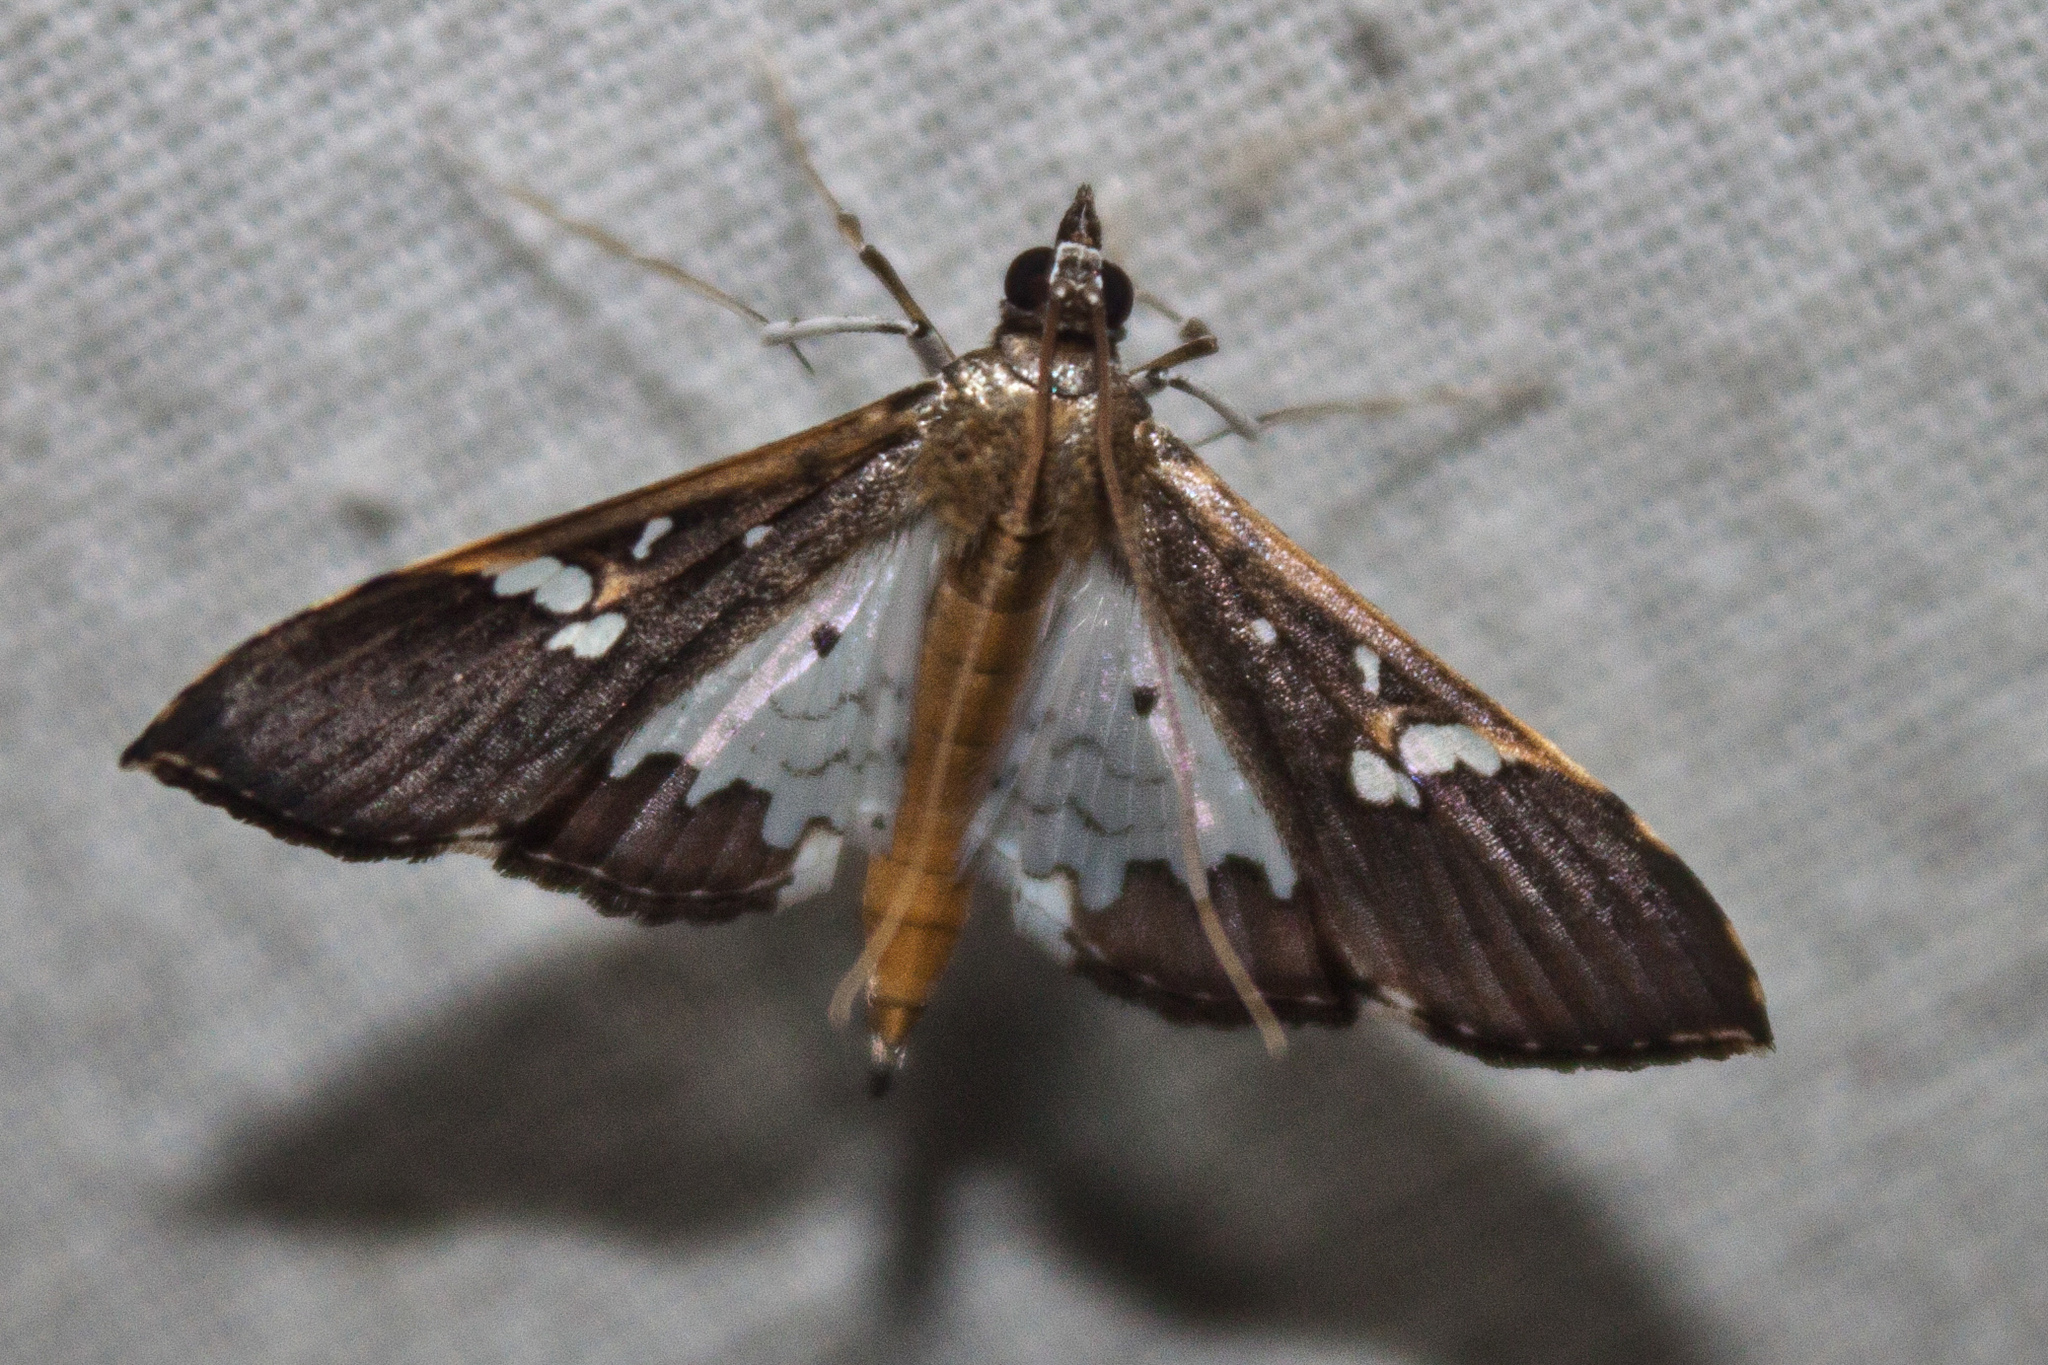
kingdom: Animalia
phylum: Arthropoda
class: Insecta
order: Lepidoptera
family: Crambidae
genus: Maruca
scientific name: Maruca vitrata
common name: Maruca pod borer
